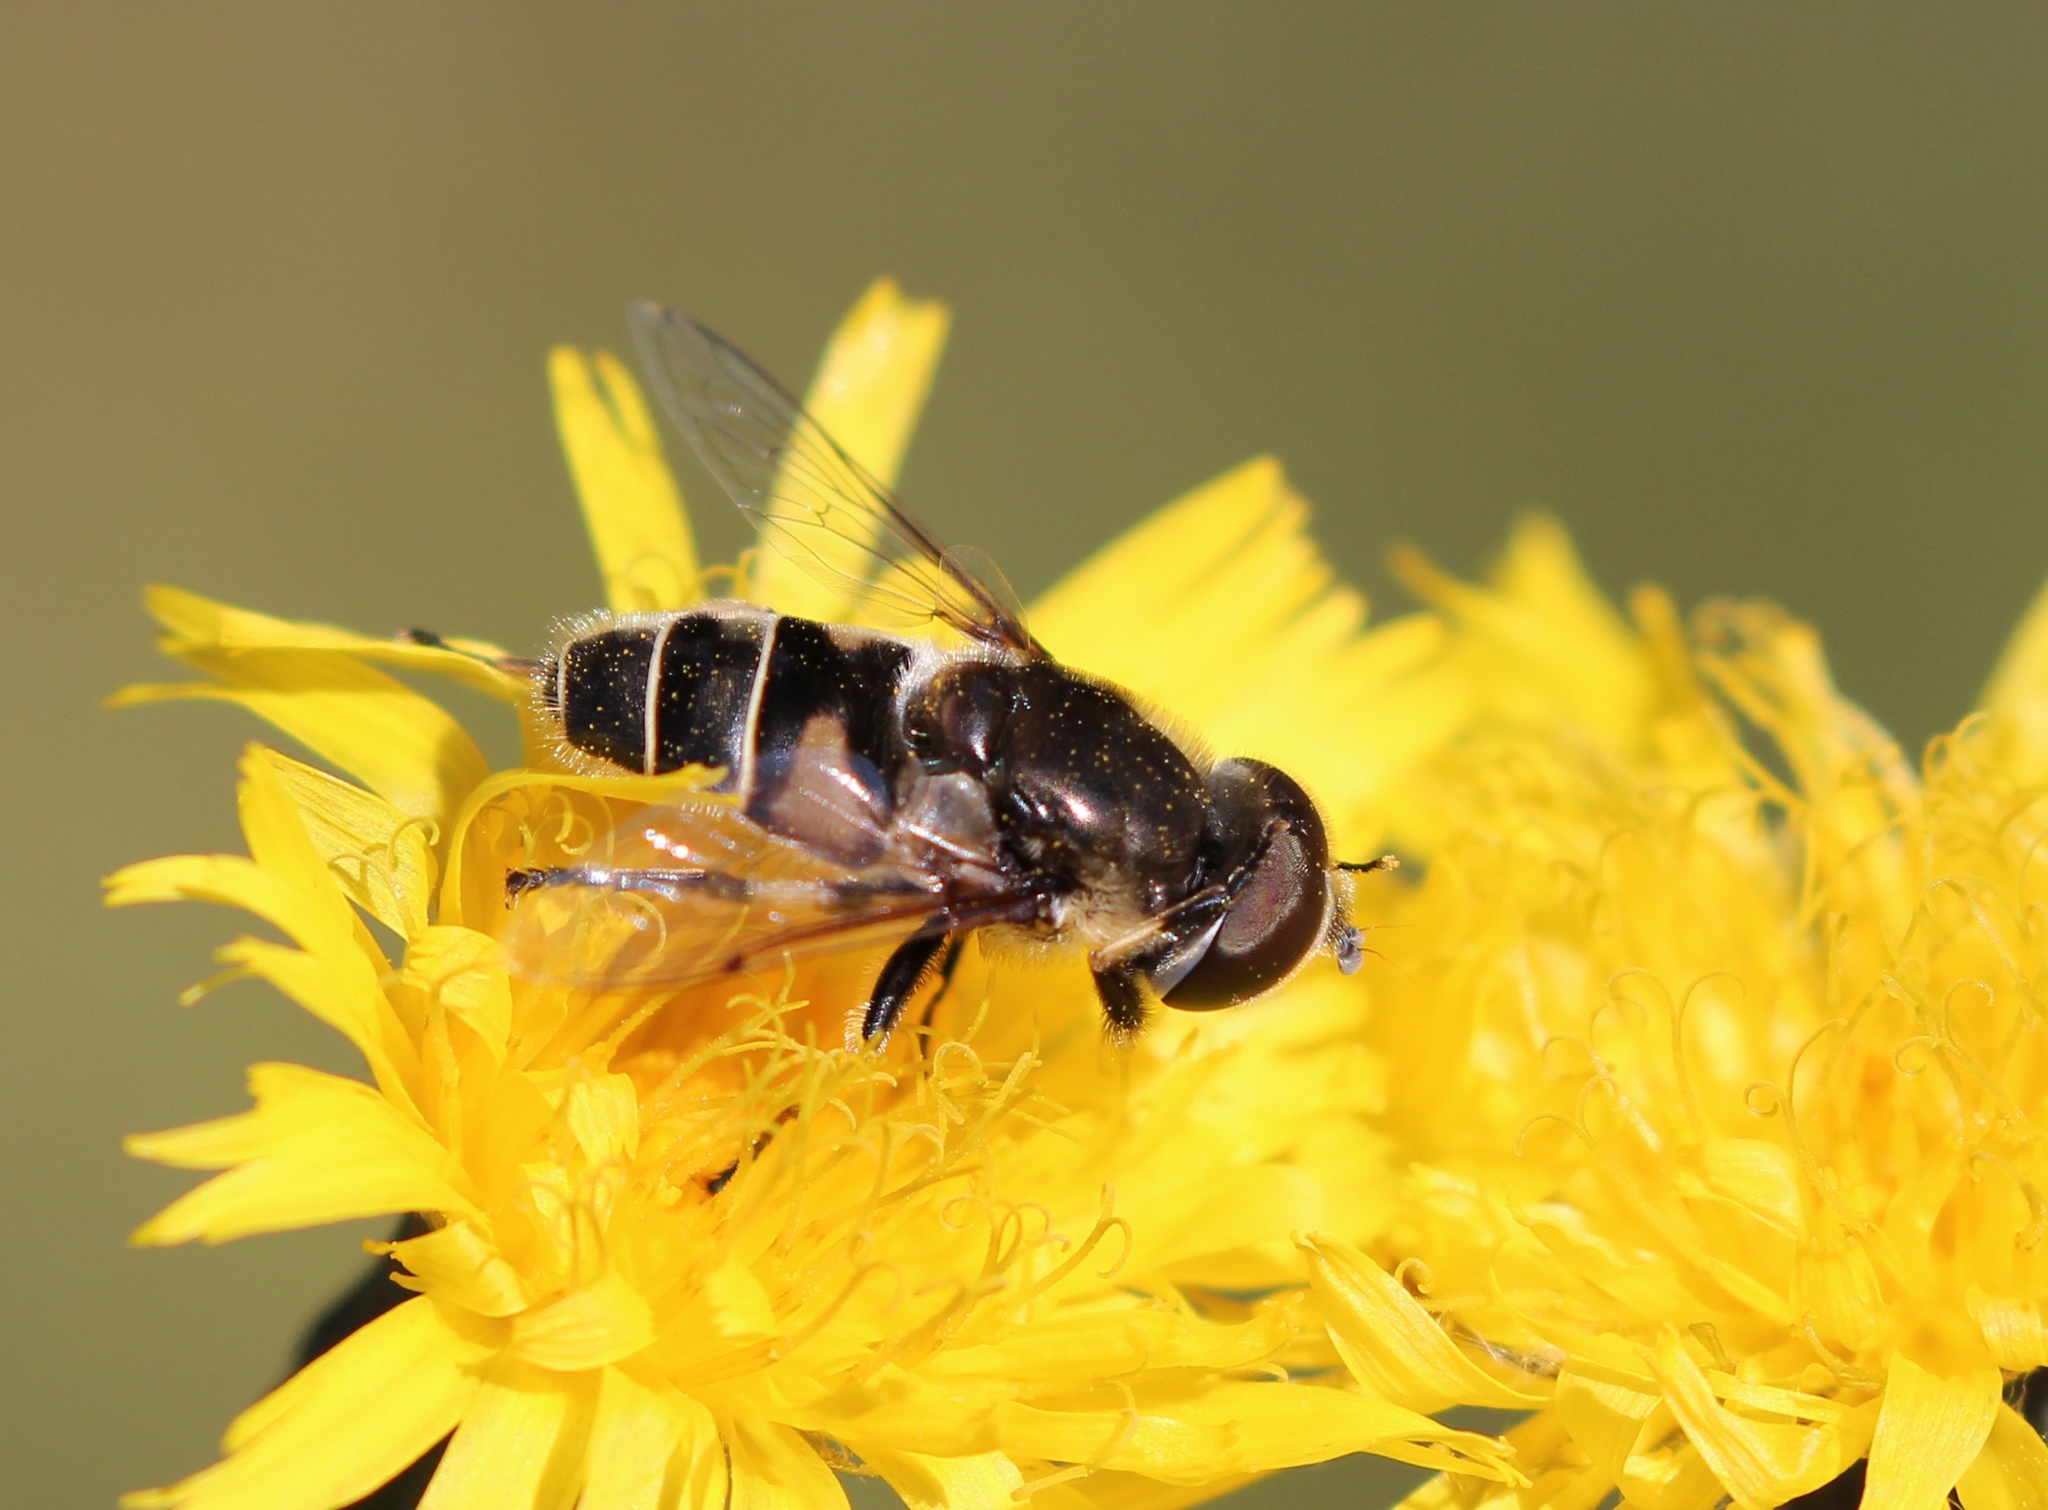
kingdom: Animalia
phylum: Arthropoda
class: Insecta
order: Diptera
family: Syrphidae
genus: Eristalis
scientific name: Eristalis dimidiata
